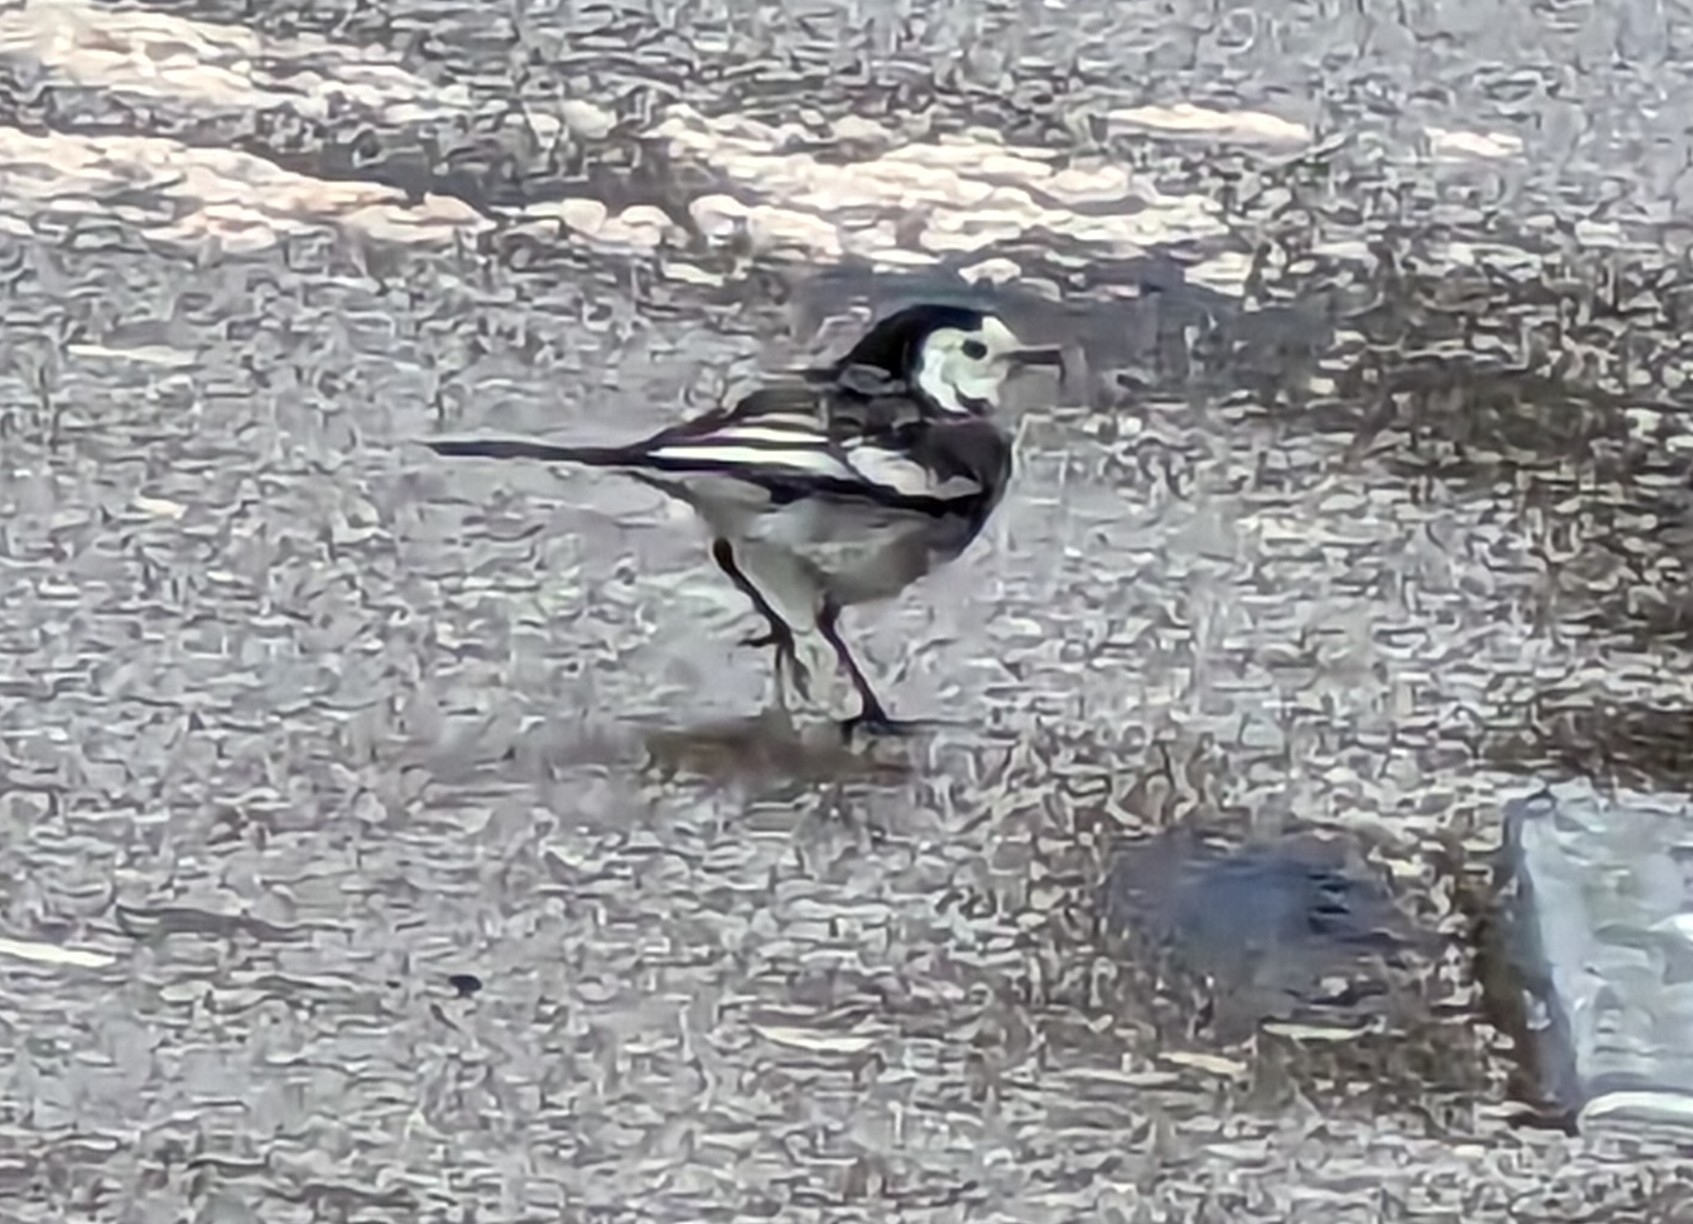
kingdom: Animalia
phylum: Chordata
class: Aves
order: Passeriformes
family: Motacillidae
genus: Motacilla
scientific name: Motacilla alba
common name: White wagtail
